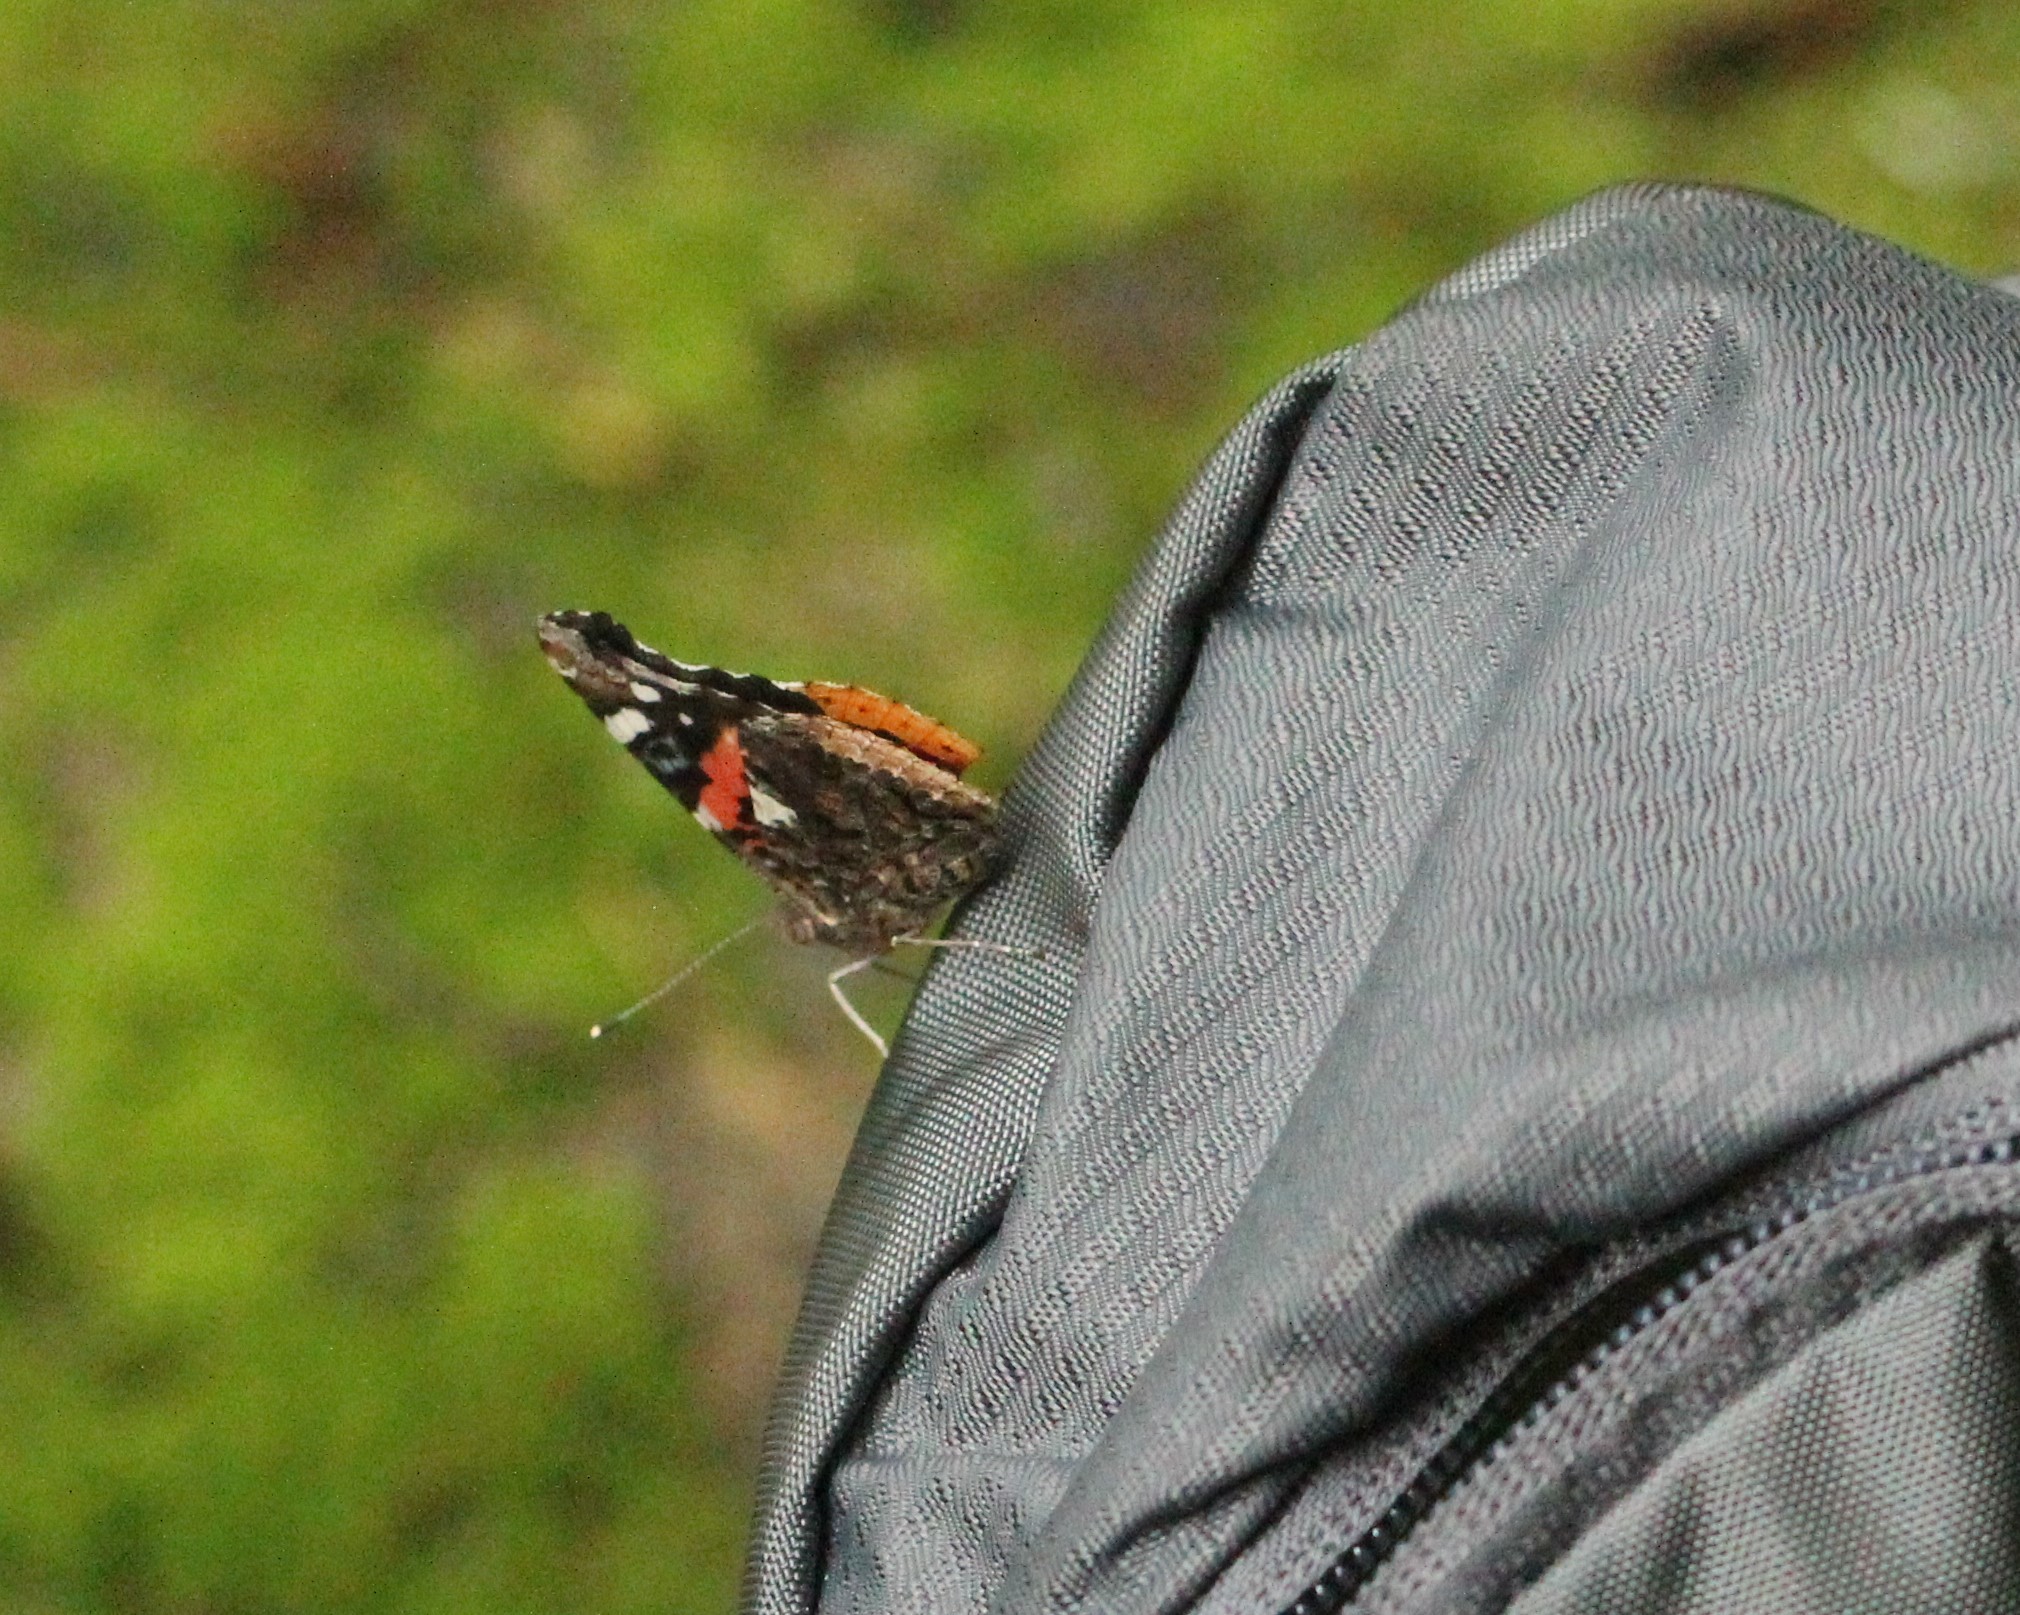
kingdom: Animalia
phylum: Arthropoda
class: Insecta
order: Lepidoptera
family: Nymphalidae
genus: Vanessa
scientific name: Vanessa atalanta
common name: Red admiral
